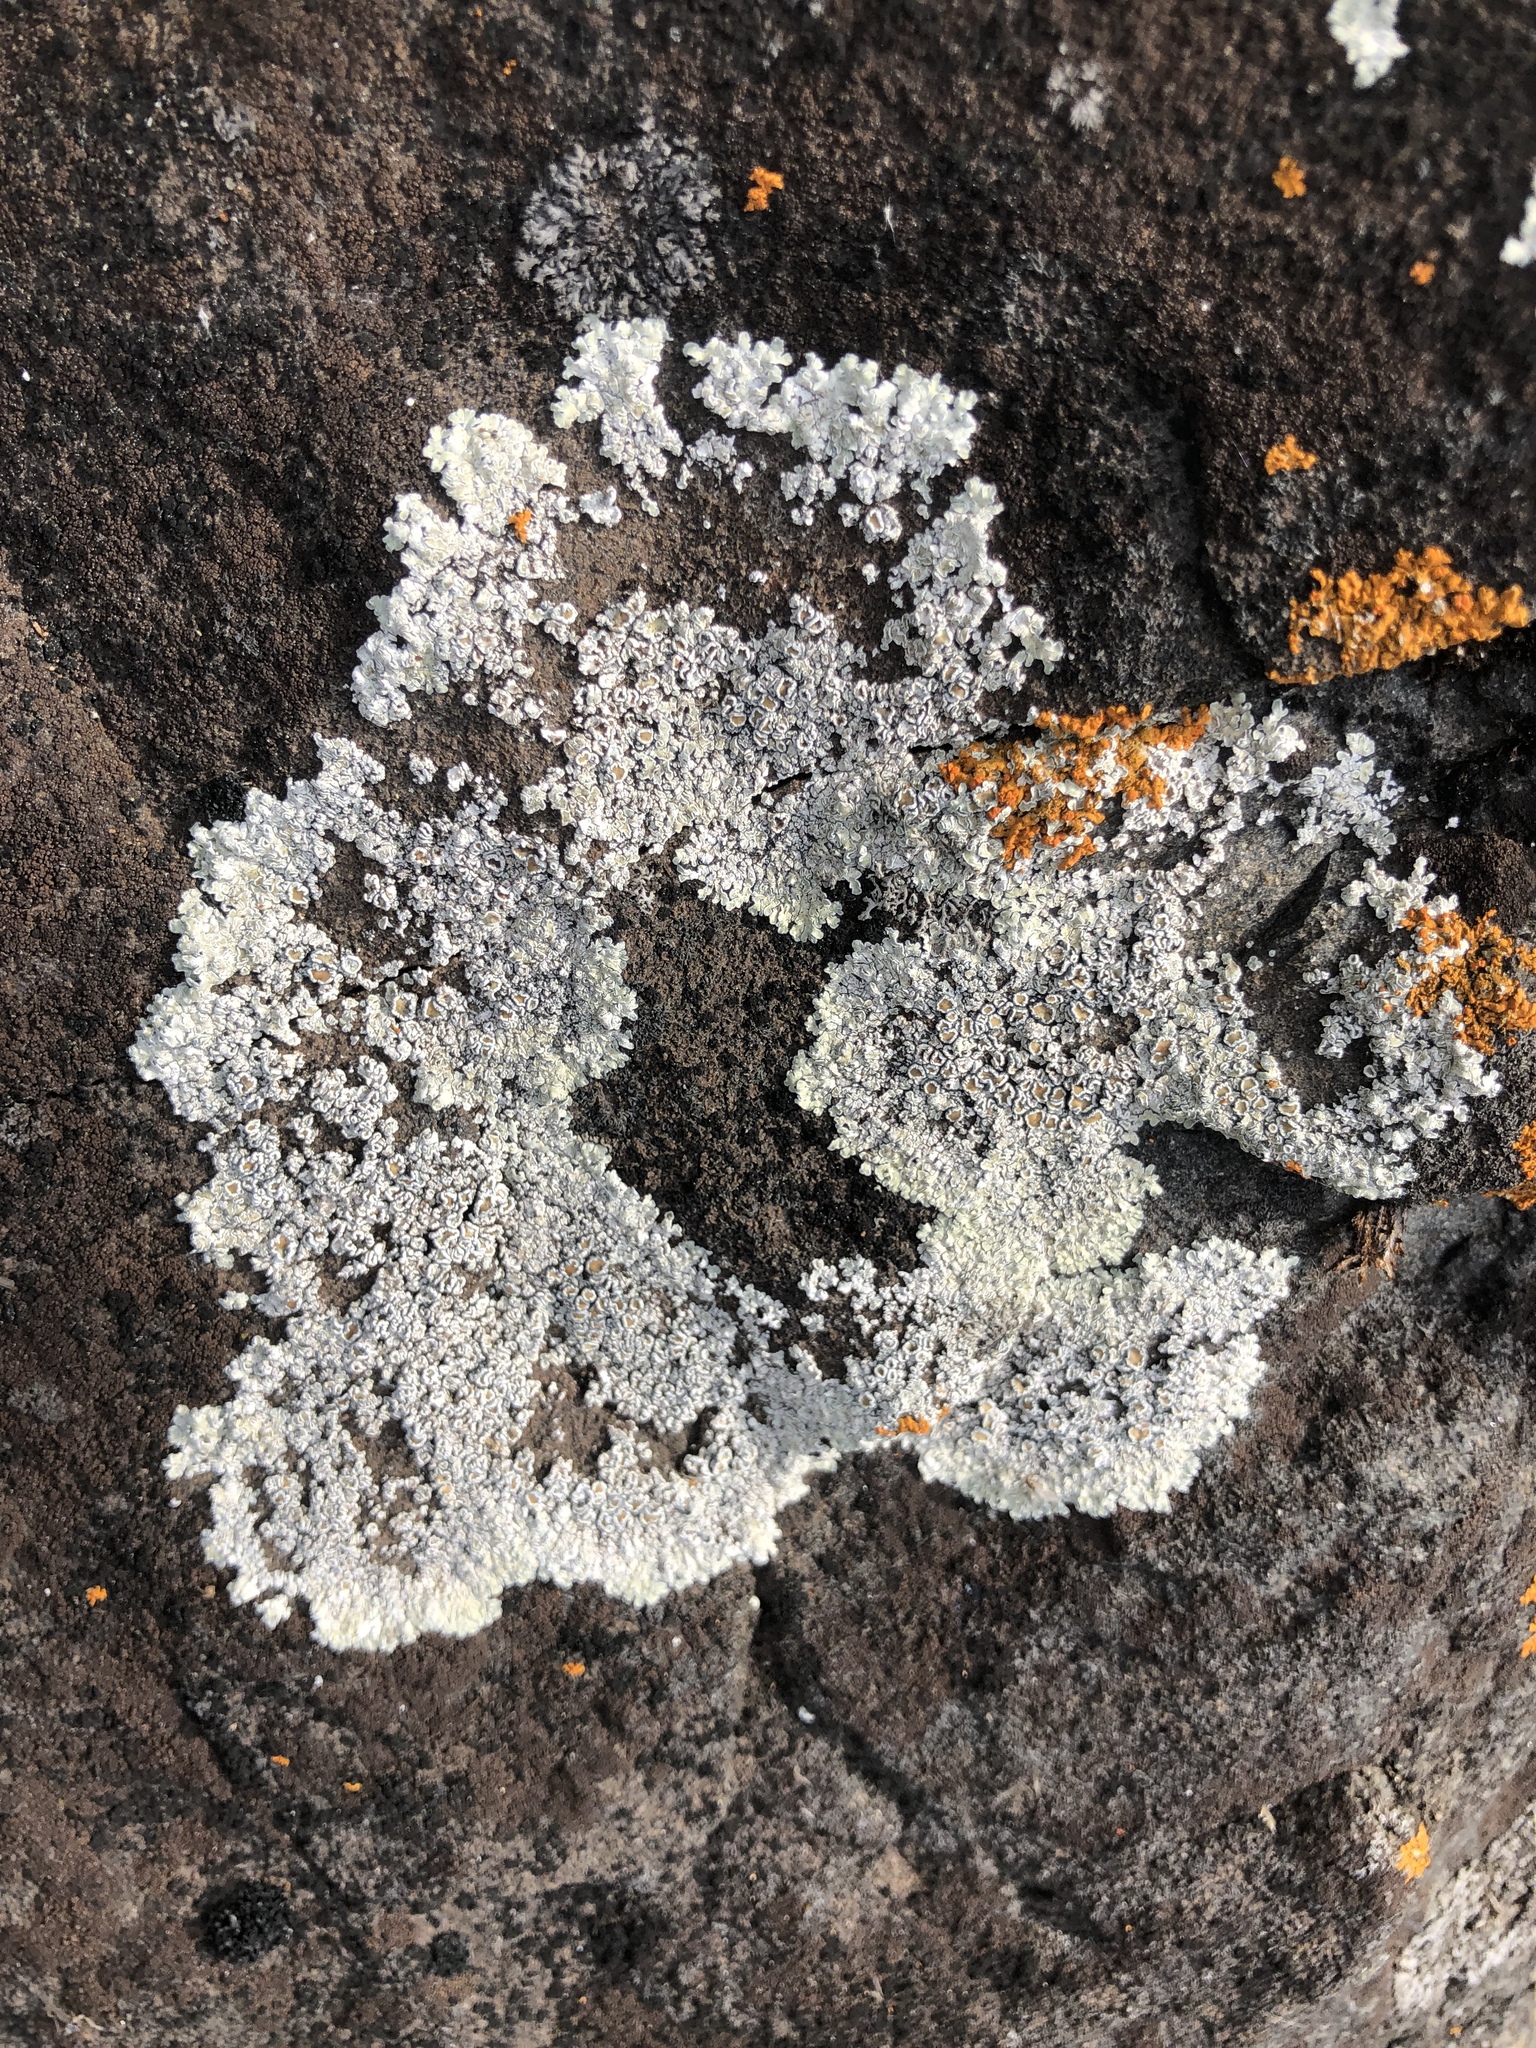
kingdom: Fungi
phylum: Ascomycota
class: Lecanoromycetes
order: Lecanorales
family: Lecanoraceae
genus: Protoparmeliopsis
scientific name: Protoparmeliopsis muralis
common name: Stonewall rim lichen
